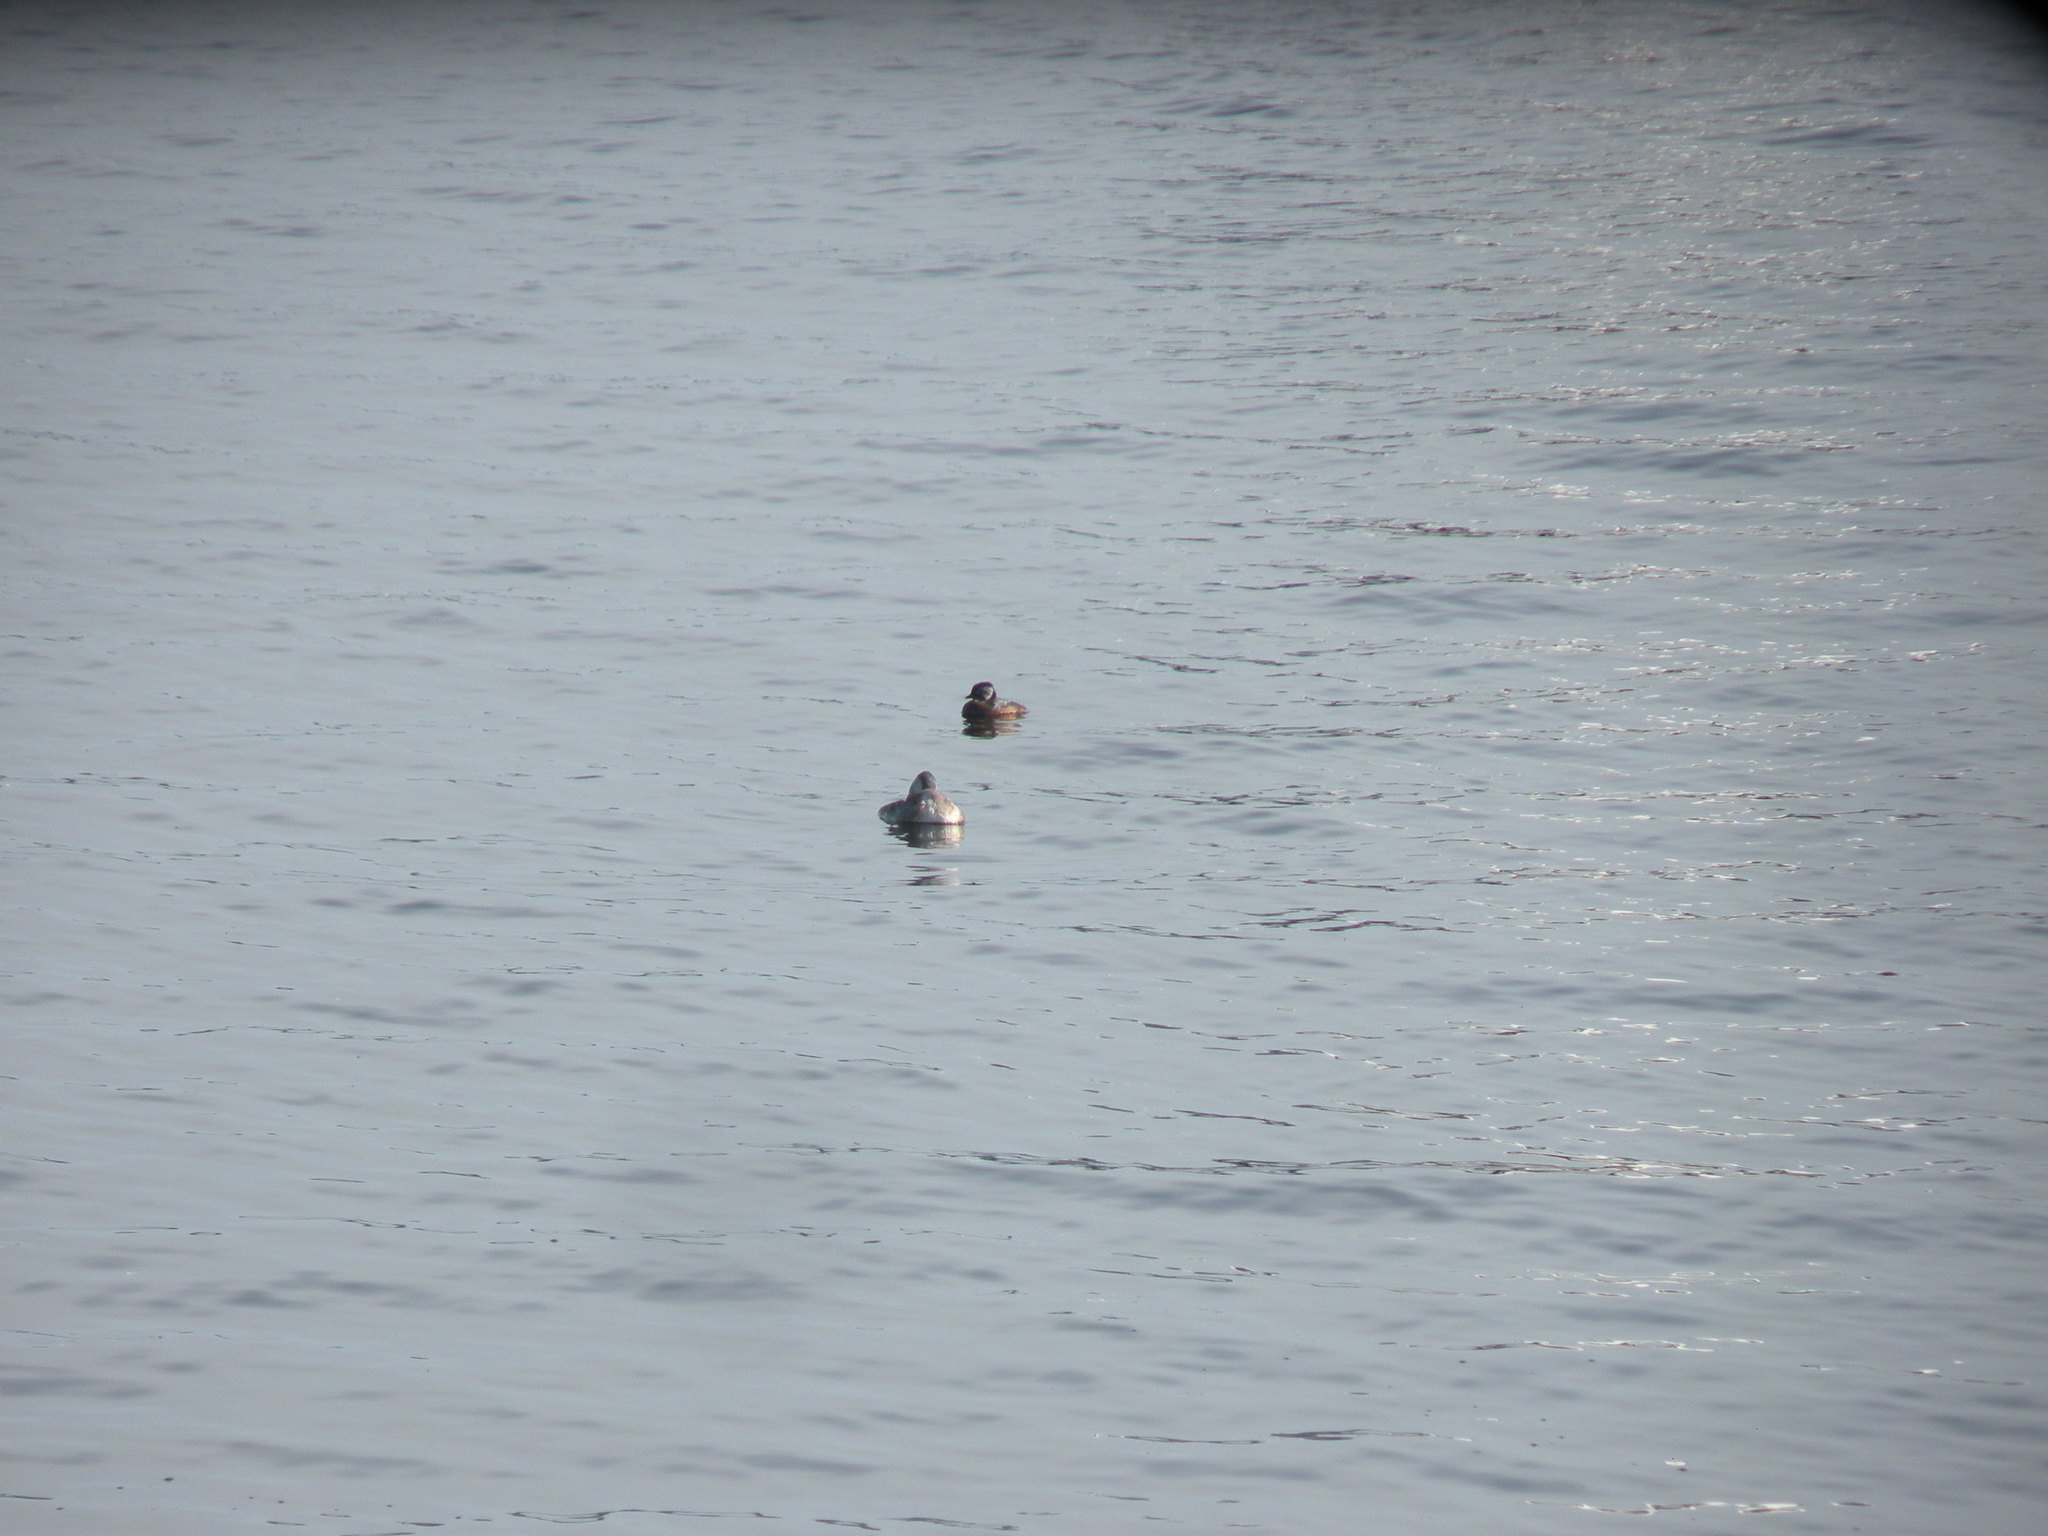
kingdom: Animalia
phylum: Chordata
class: Aves
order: Podicipediformes
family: Podicipedidae
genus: Rollandia
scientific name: Rollandia rolland
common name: White-tufted grebe
